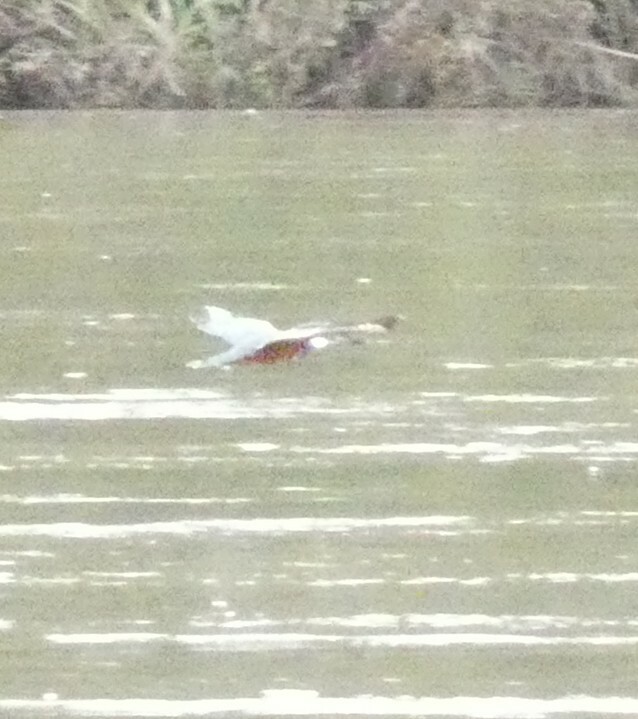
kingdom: Animalia
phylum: Chordata
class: Aves
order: Coraciiformes
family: Alcedinidae
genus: Megaceryle
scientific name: Megaceryle torquata
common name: Ringed kingfisher
